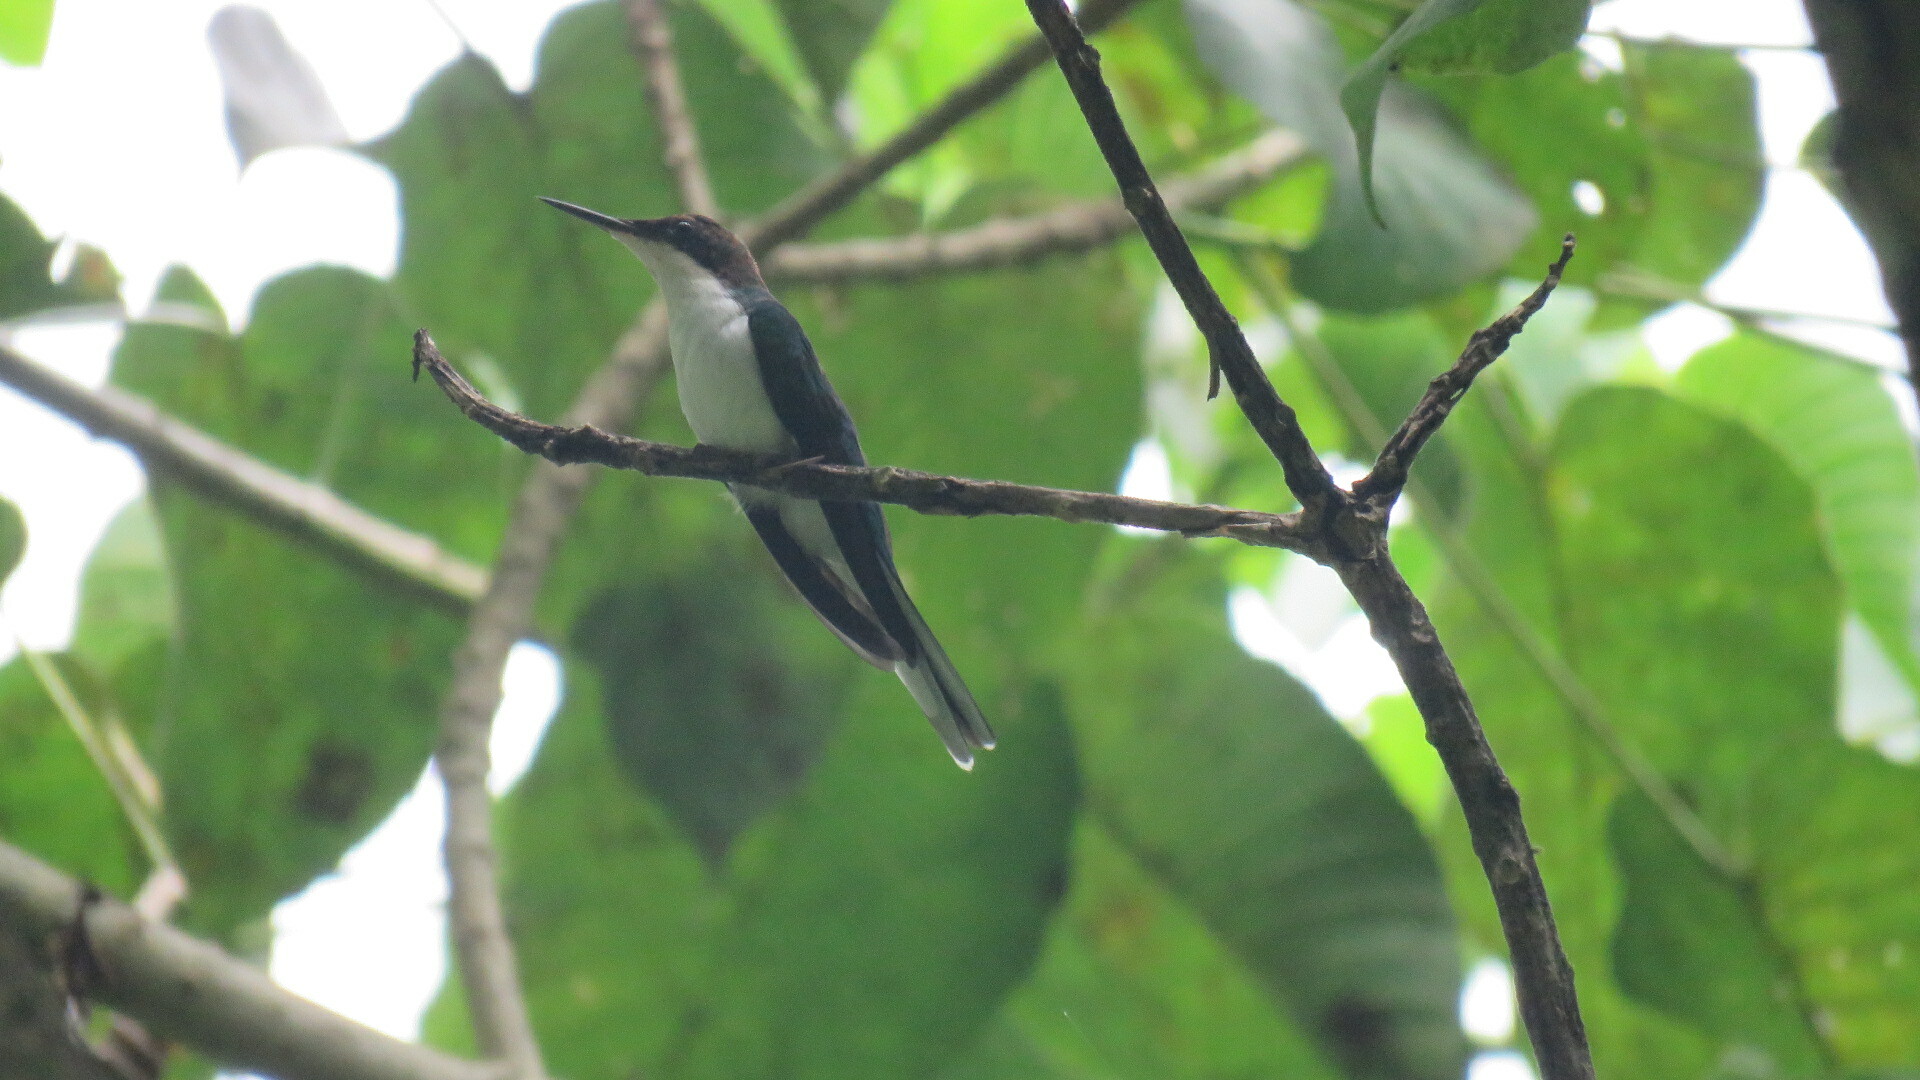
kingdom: Animalia
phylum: Chordata
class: Aves
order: Apodiformes
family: Trochilidae
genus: Heliothryx
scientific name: Heliothryx barroti
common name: Purple-crowned fairy
